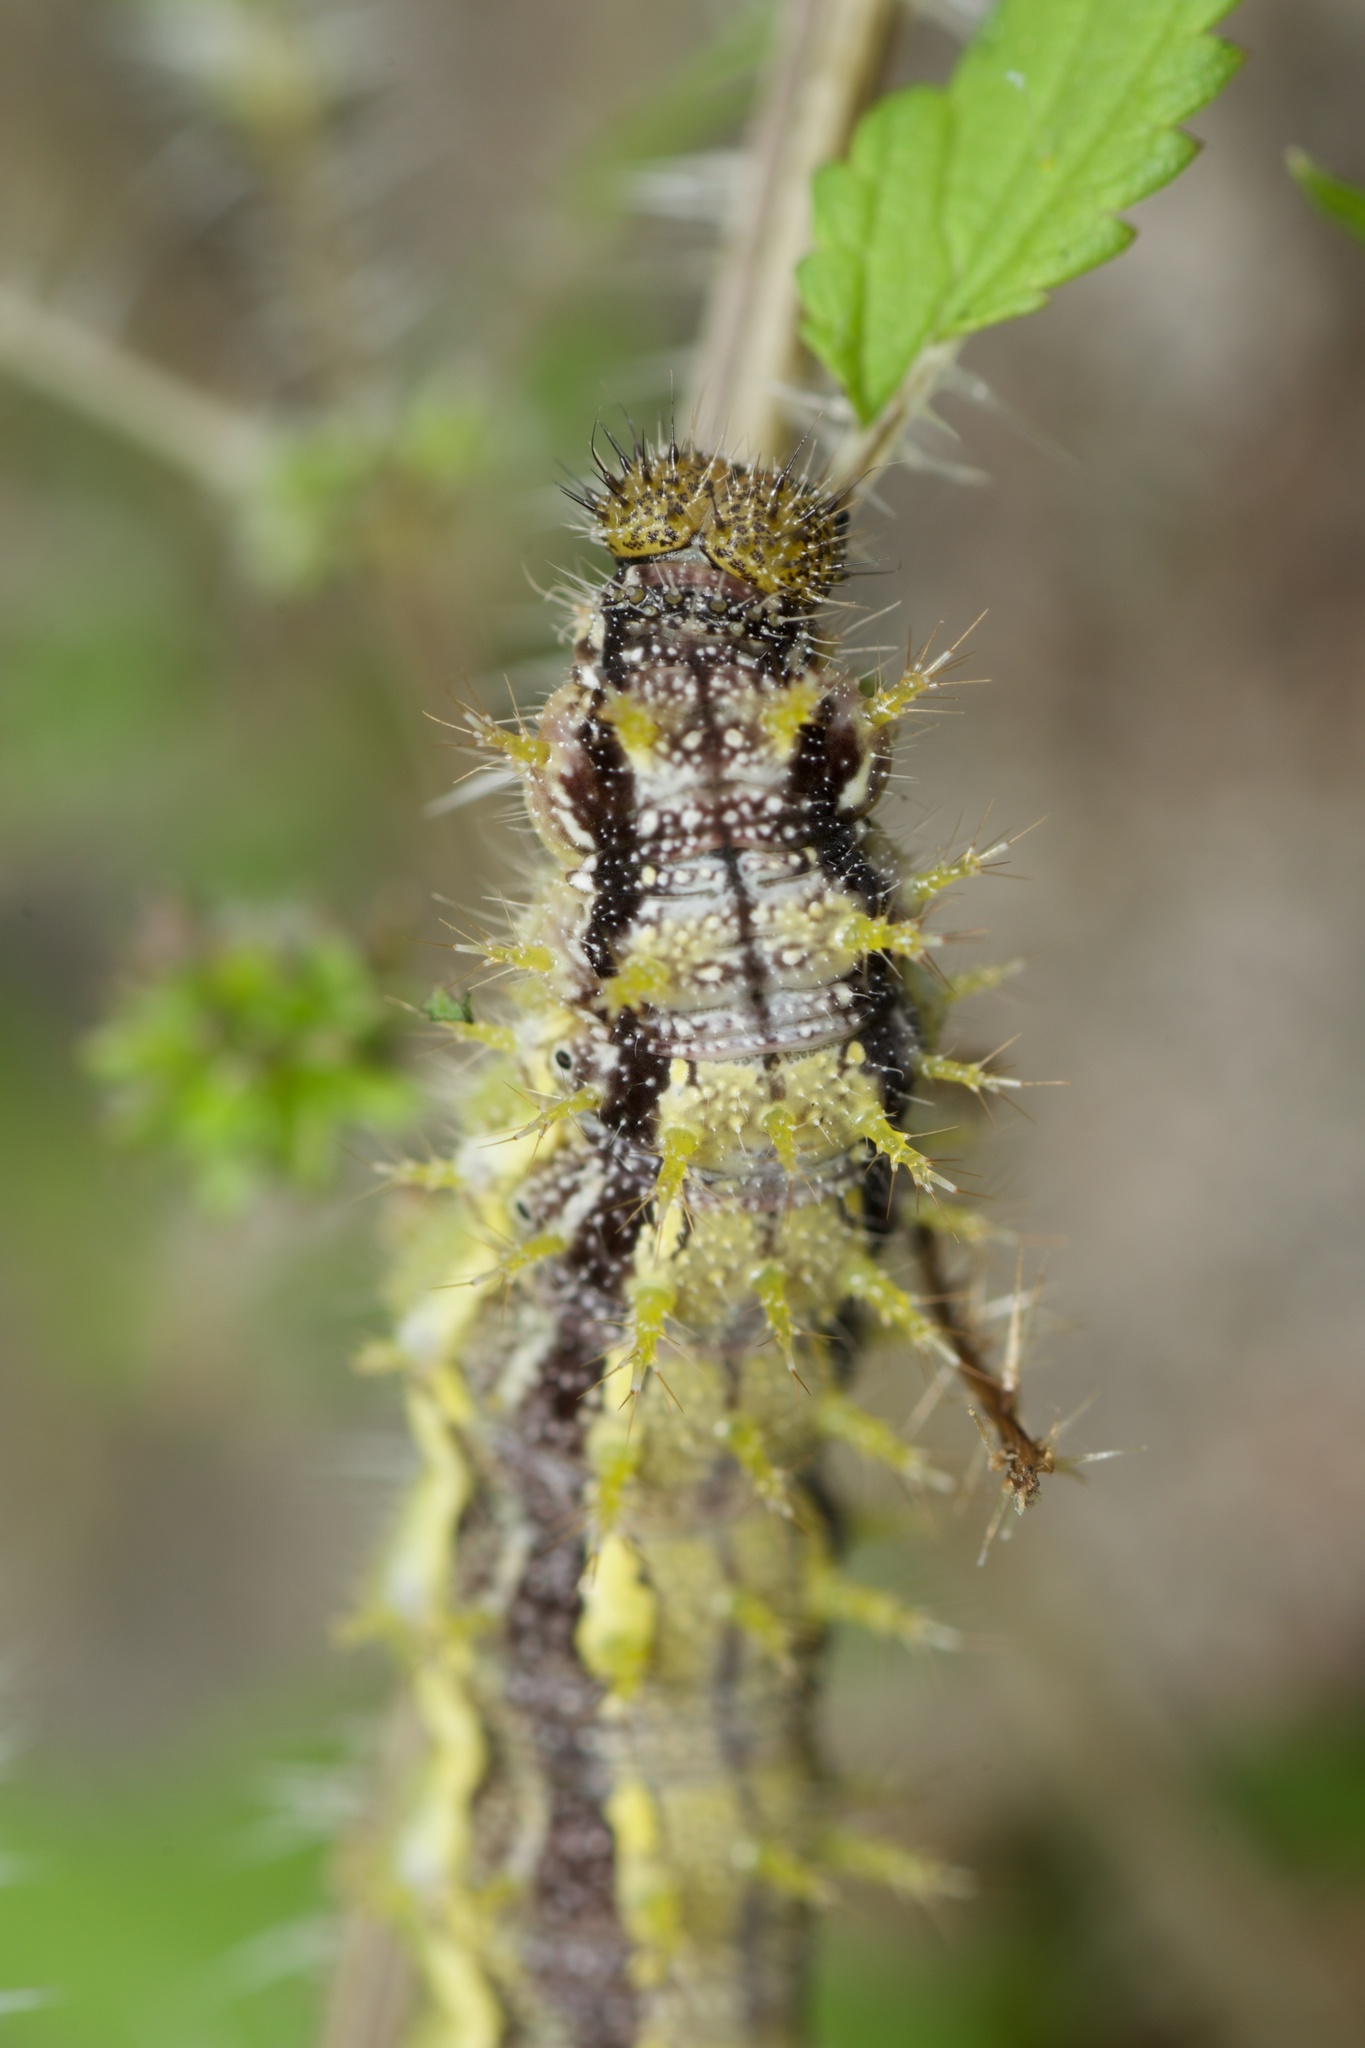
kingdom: Animalia
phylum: Arthropoda
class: Insecta
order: Lepidoptera
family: Nymphalidae
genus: Vanessa
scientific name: Vanessa itea
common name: Yellow admiral
